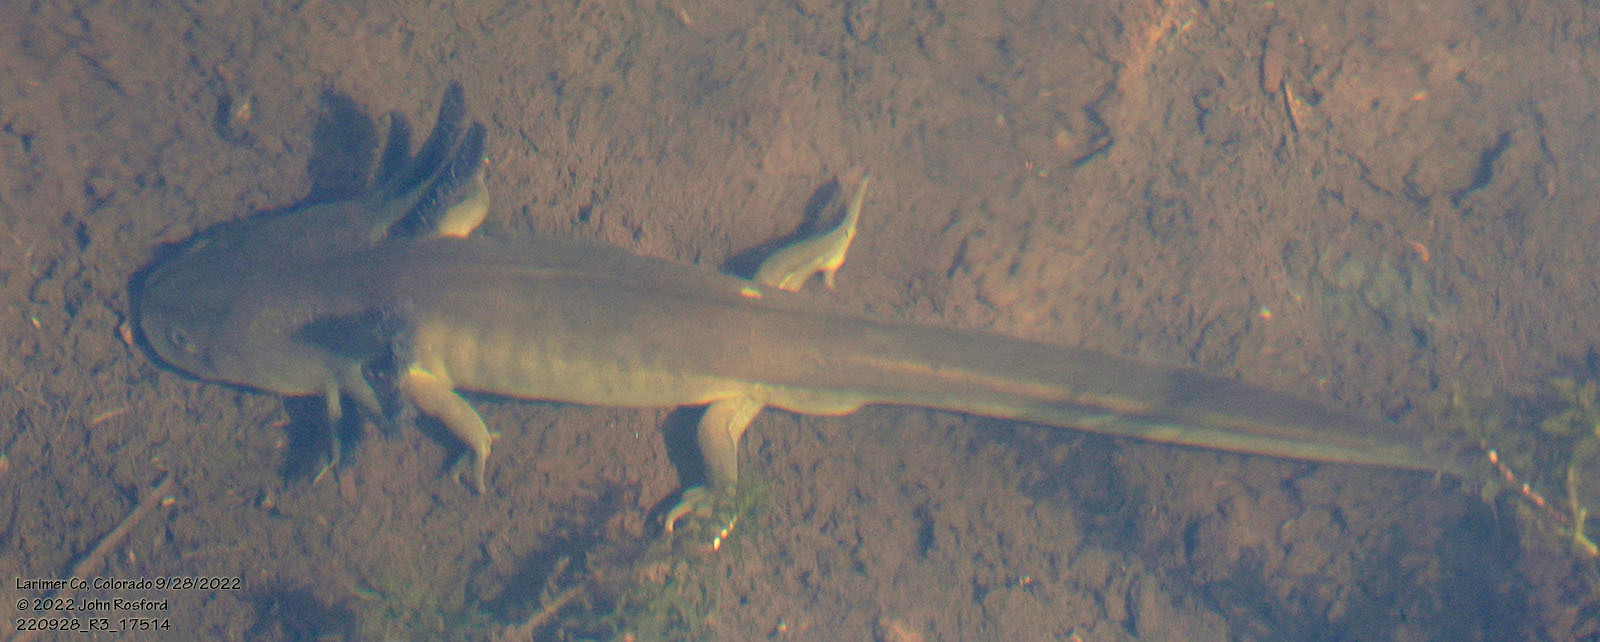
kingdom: Animalia
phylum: Chordata
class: Amphibia
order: Caudata
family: Ambystomatidae
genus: Ambystoma
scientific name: Ambystoma mavortium
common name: Western tiger salamander
